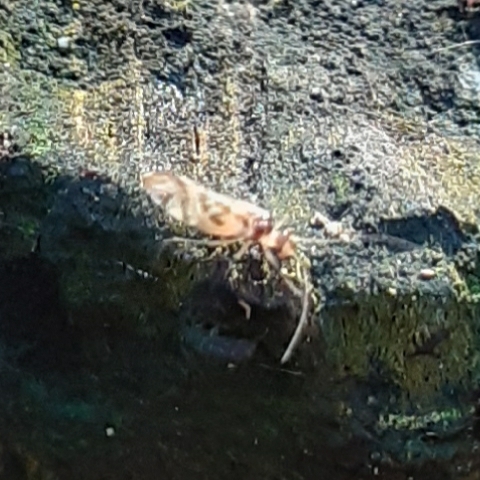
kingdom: Animalia
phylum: Arthropoda
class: Insecta
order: Psocodea
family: Stenopsocidae
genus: Graphopsocus
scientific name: Graphopsocus cruciatus
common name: Lizard bark louse
